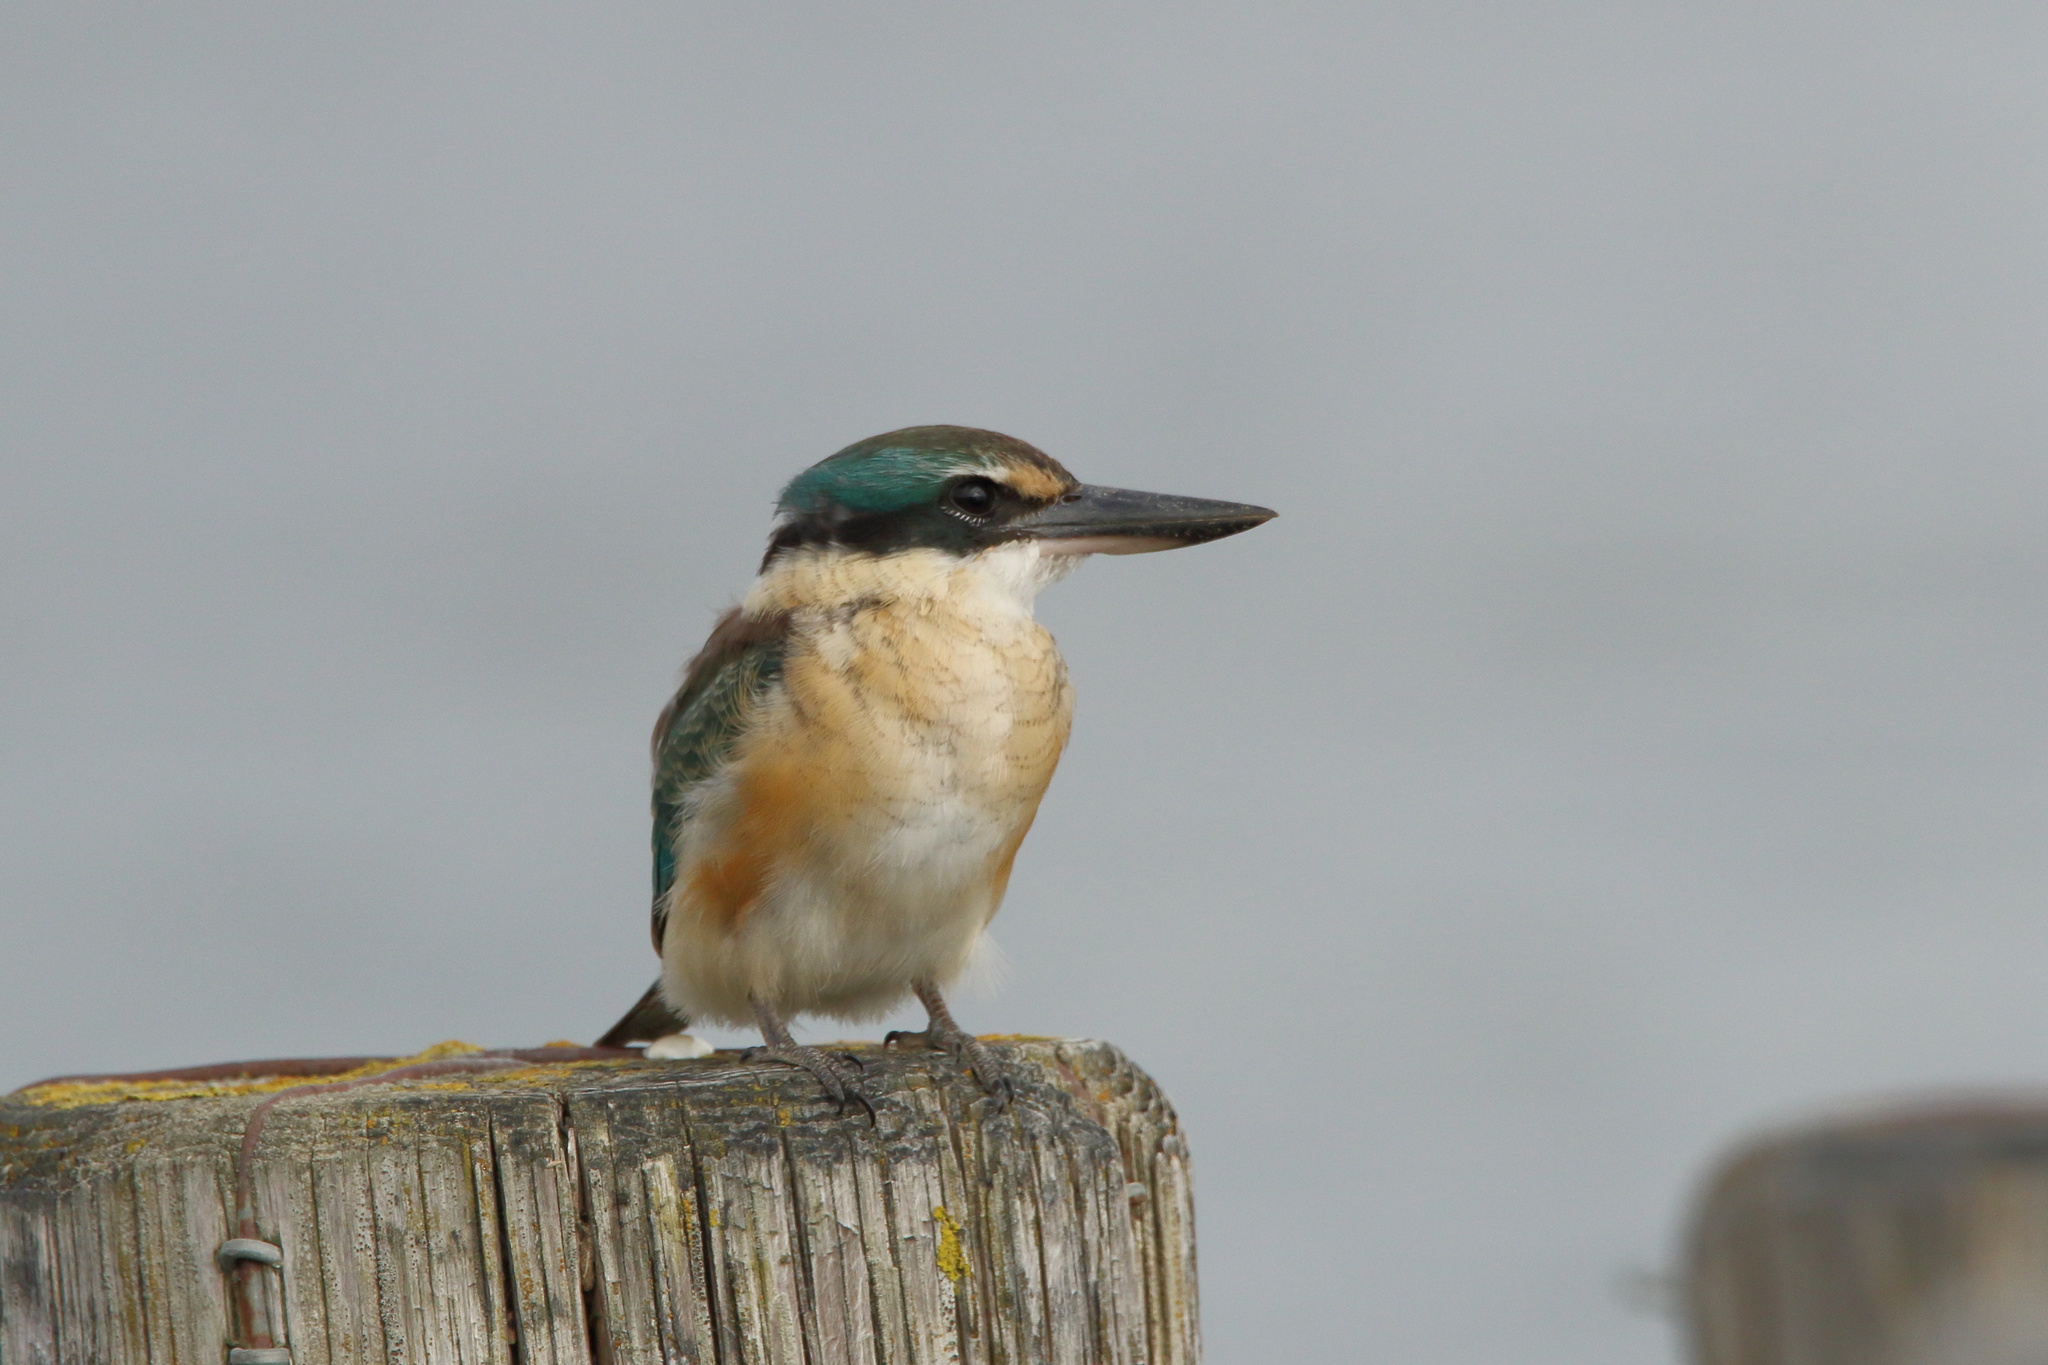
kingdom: Animalia
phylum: Chordata
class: Aves
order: Coraciiformes
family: Alcedinidae
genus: Todiramphus
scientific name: Todiramphus sanctus
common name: Sacred kingfisher
